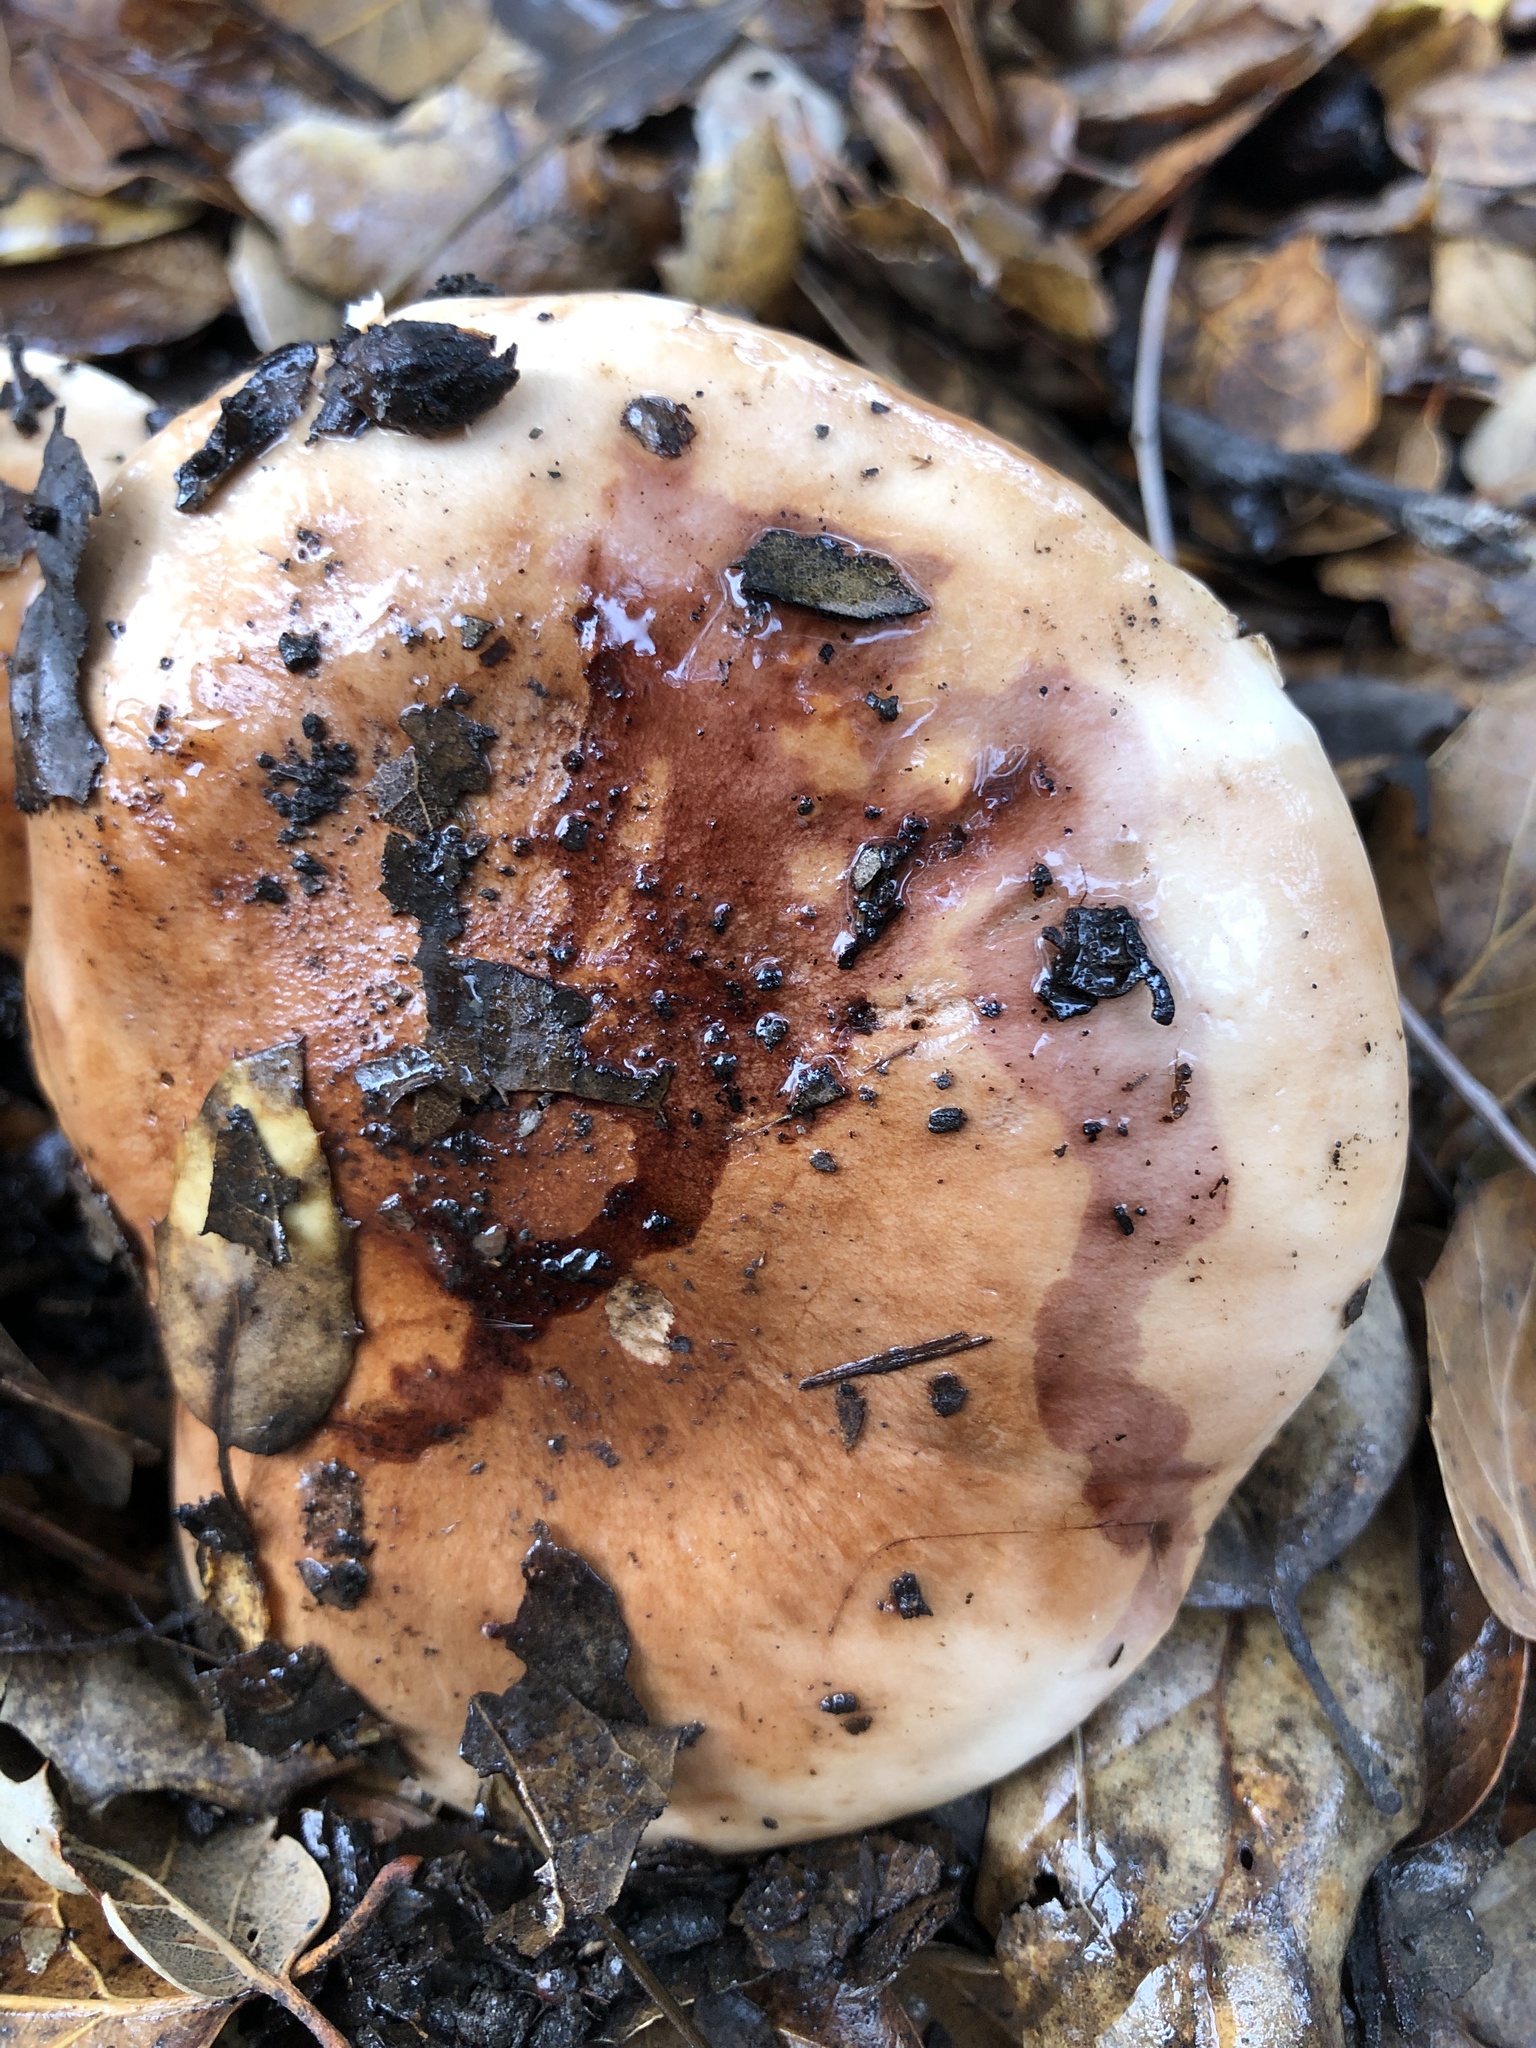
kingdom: Fungi
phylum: Basidiomycota
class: Agaricomycetes
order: Agaricales
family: Tricholomataceae
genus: Melanoleuca
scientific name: Melanoleuca dryophila
